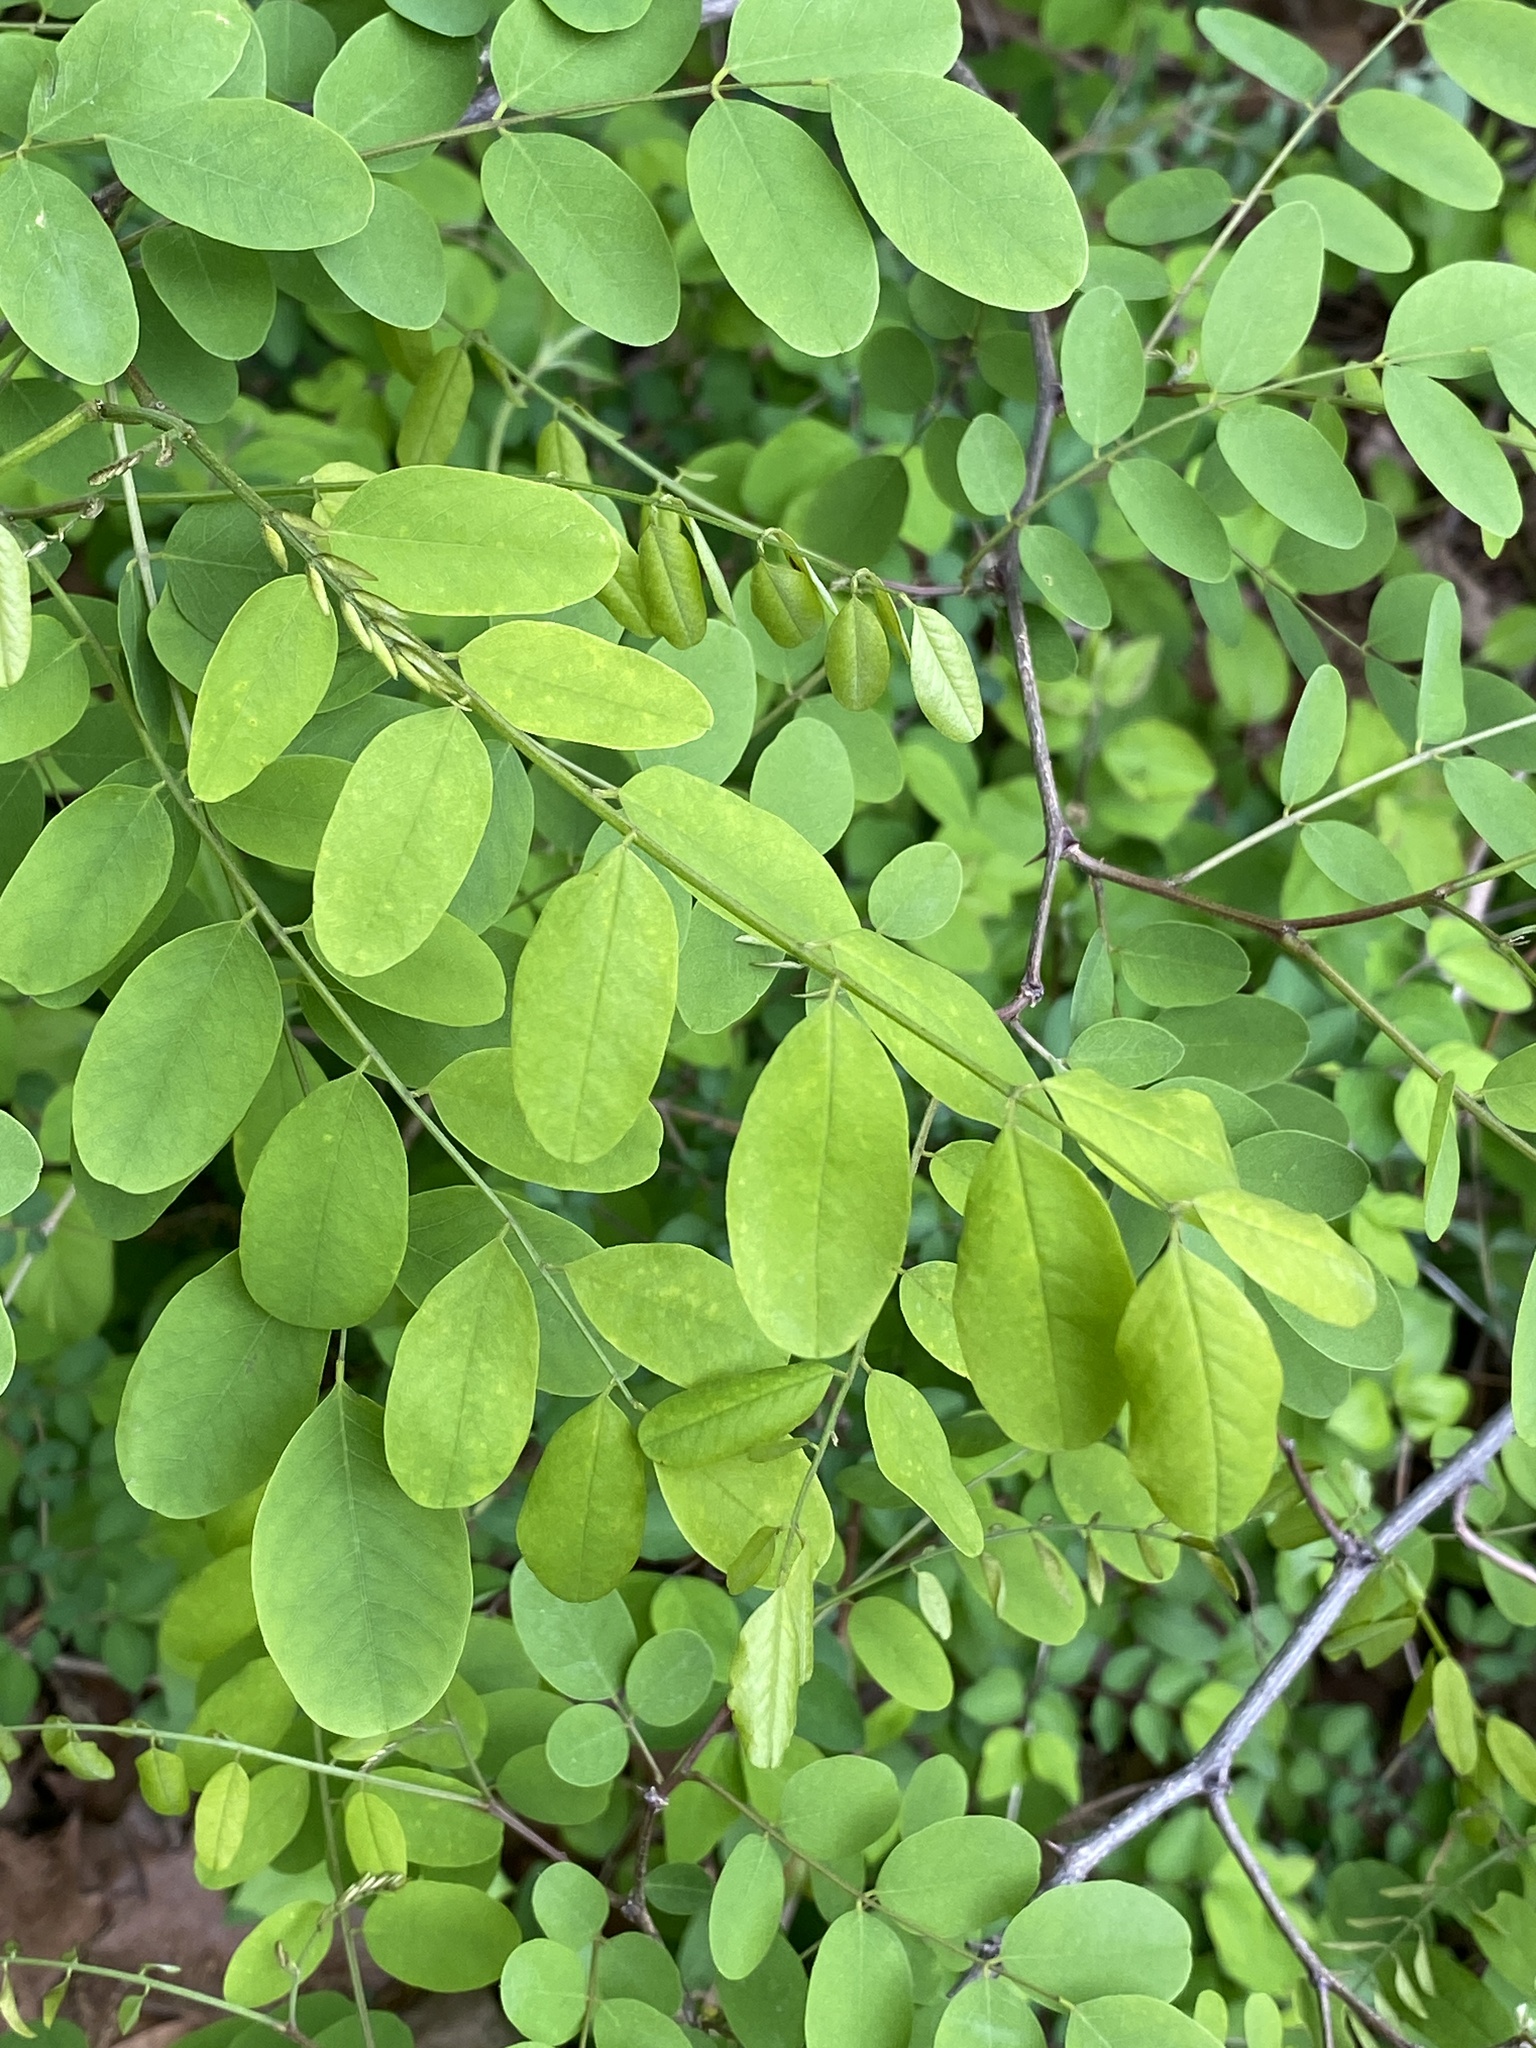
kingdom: Plantae
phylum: Tracheophyta
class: Magnoliopsida
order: Fabales
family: Fabaceae
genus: Robinia
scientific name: Robinia pseudoacacia
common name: Black locust
